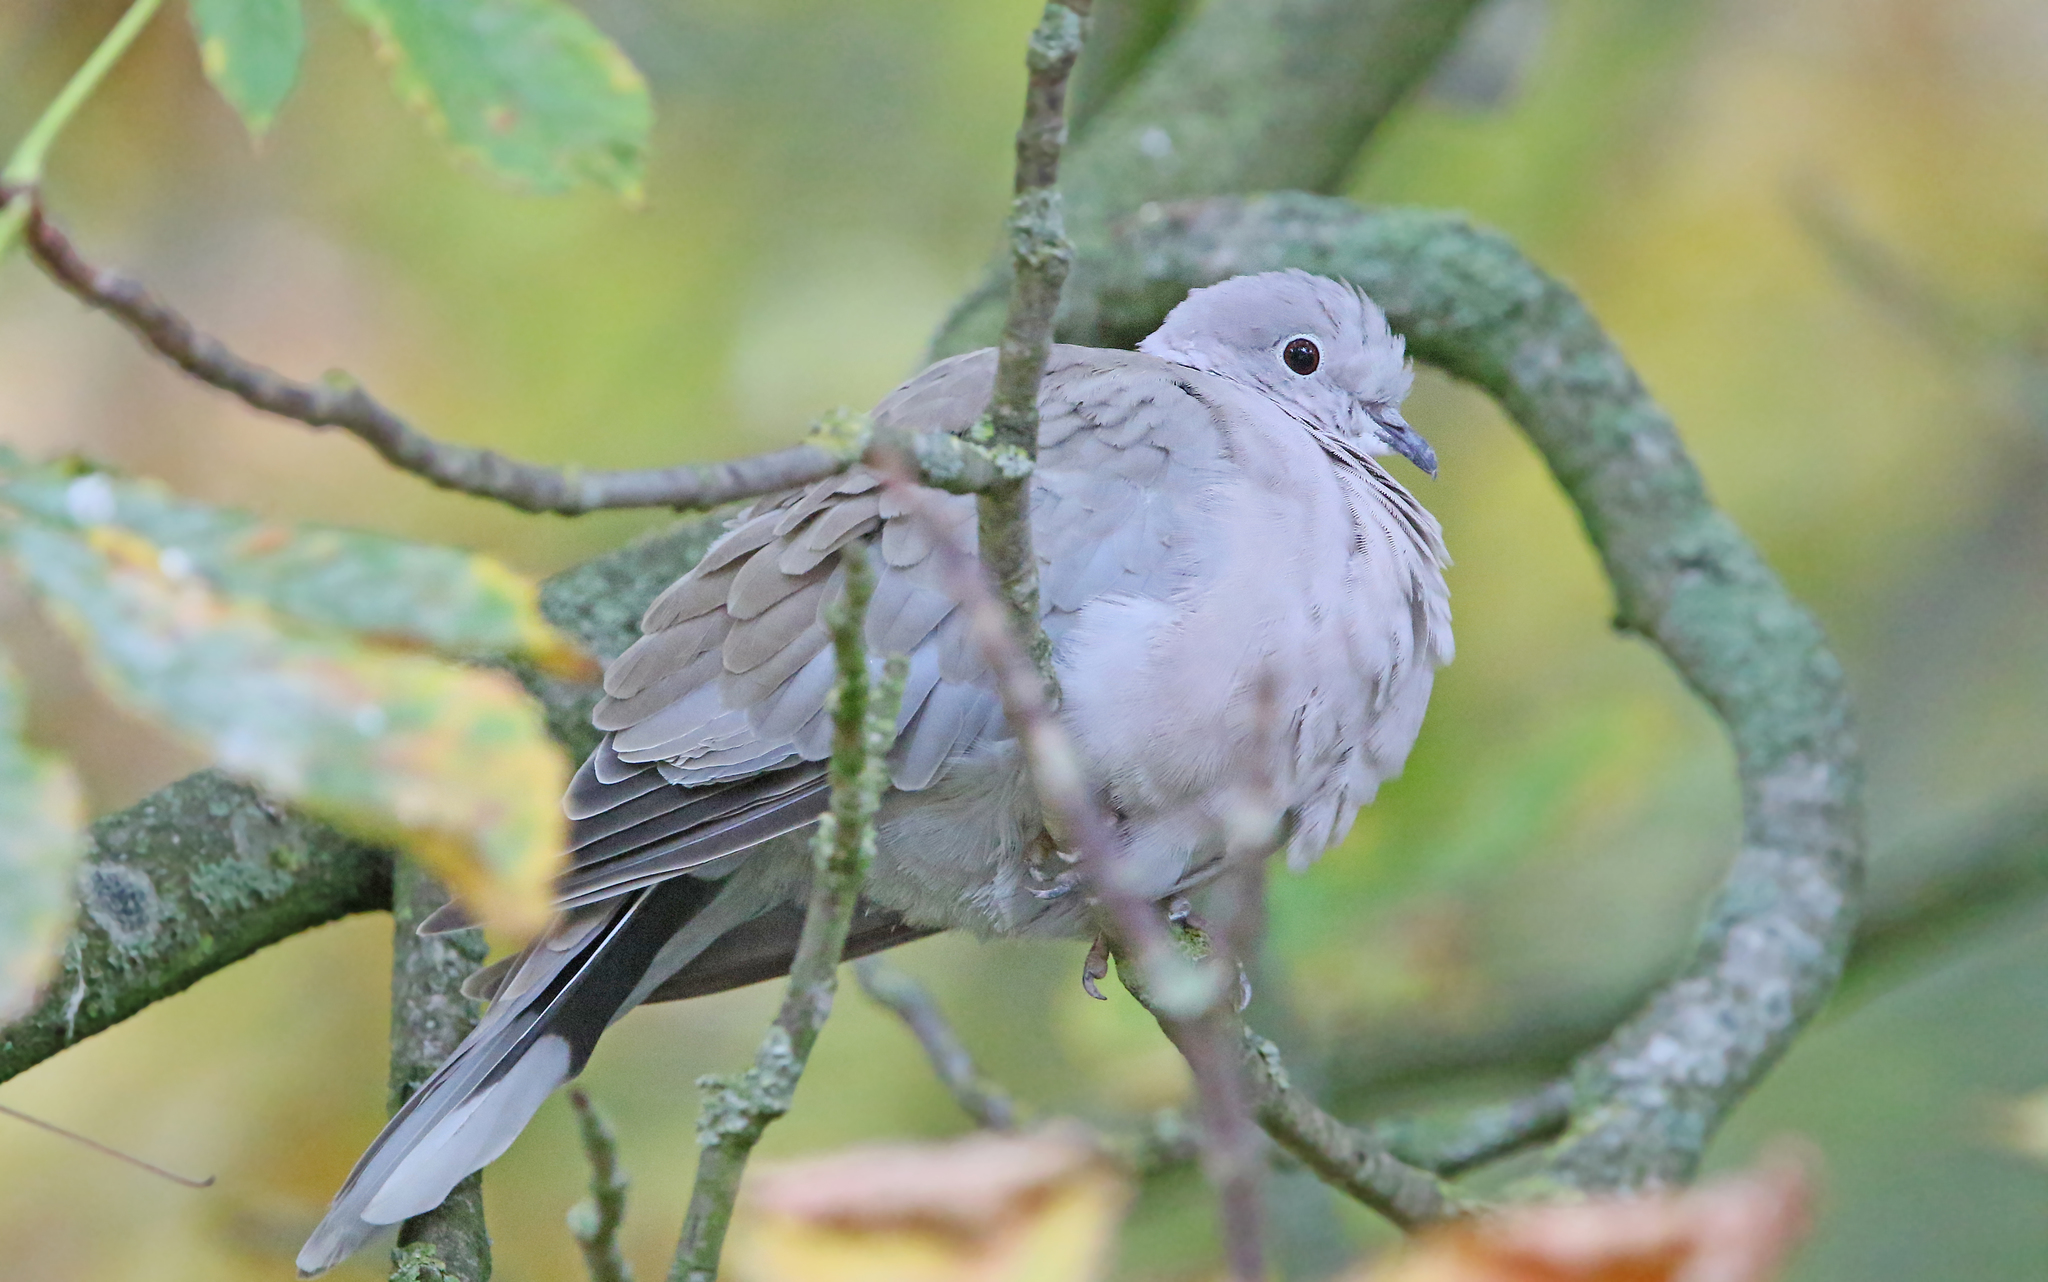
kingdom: Animalia
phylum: Chordata
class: Aves
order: Columbiformes
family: Columbidae
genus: Streptopelia
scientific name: Streptopelia decaocto
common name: Eurasian collared dove
